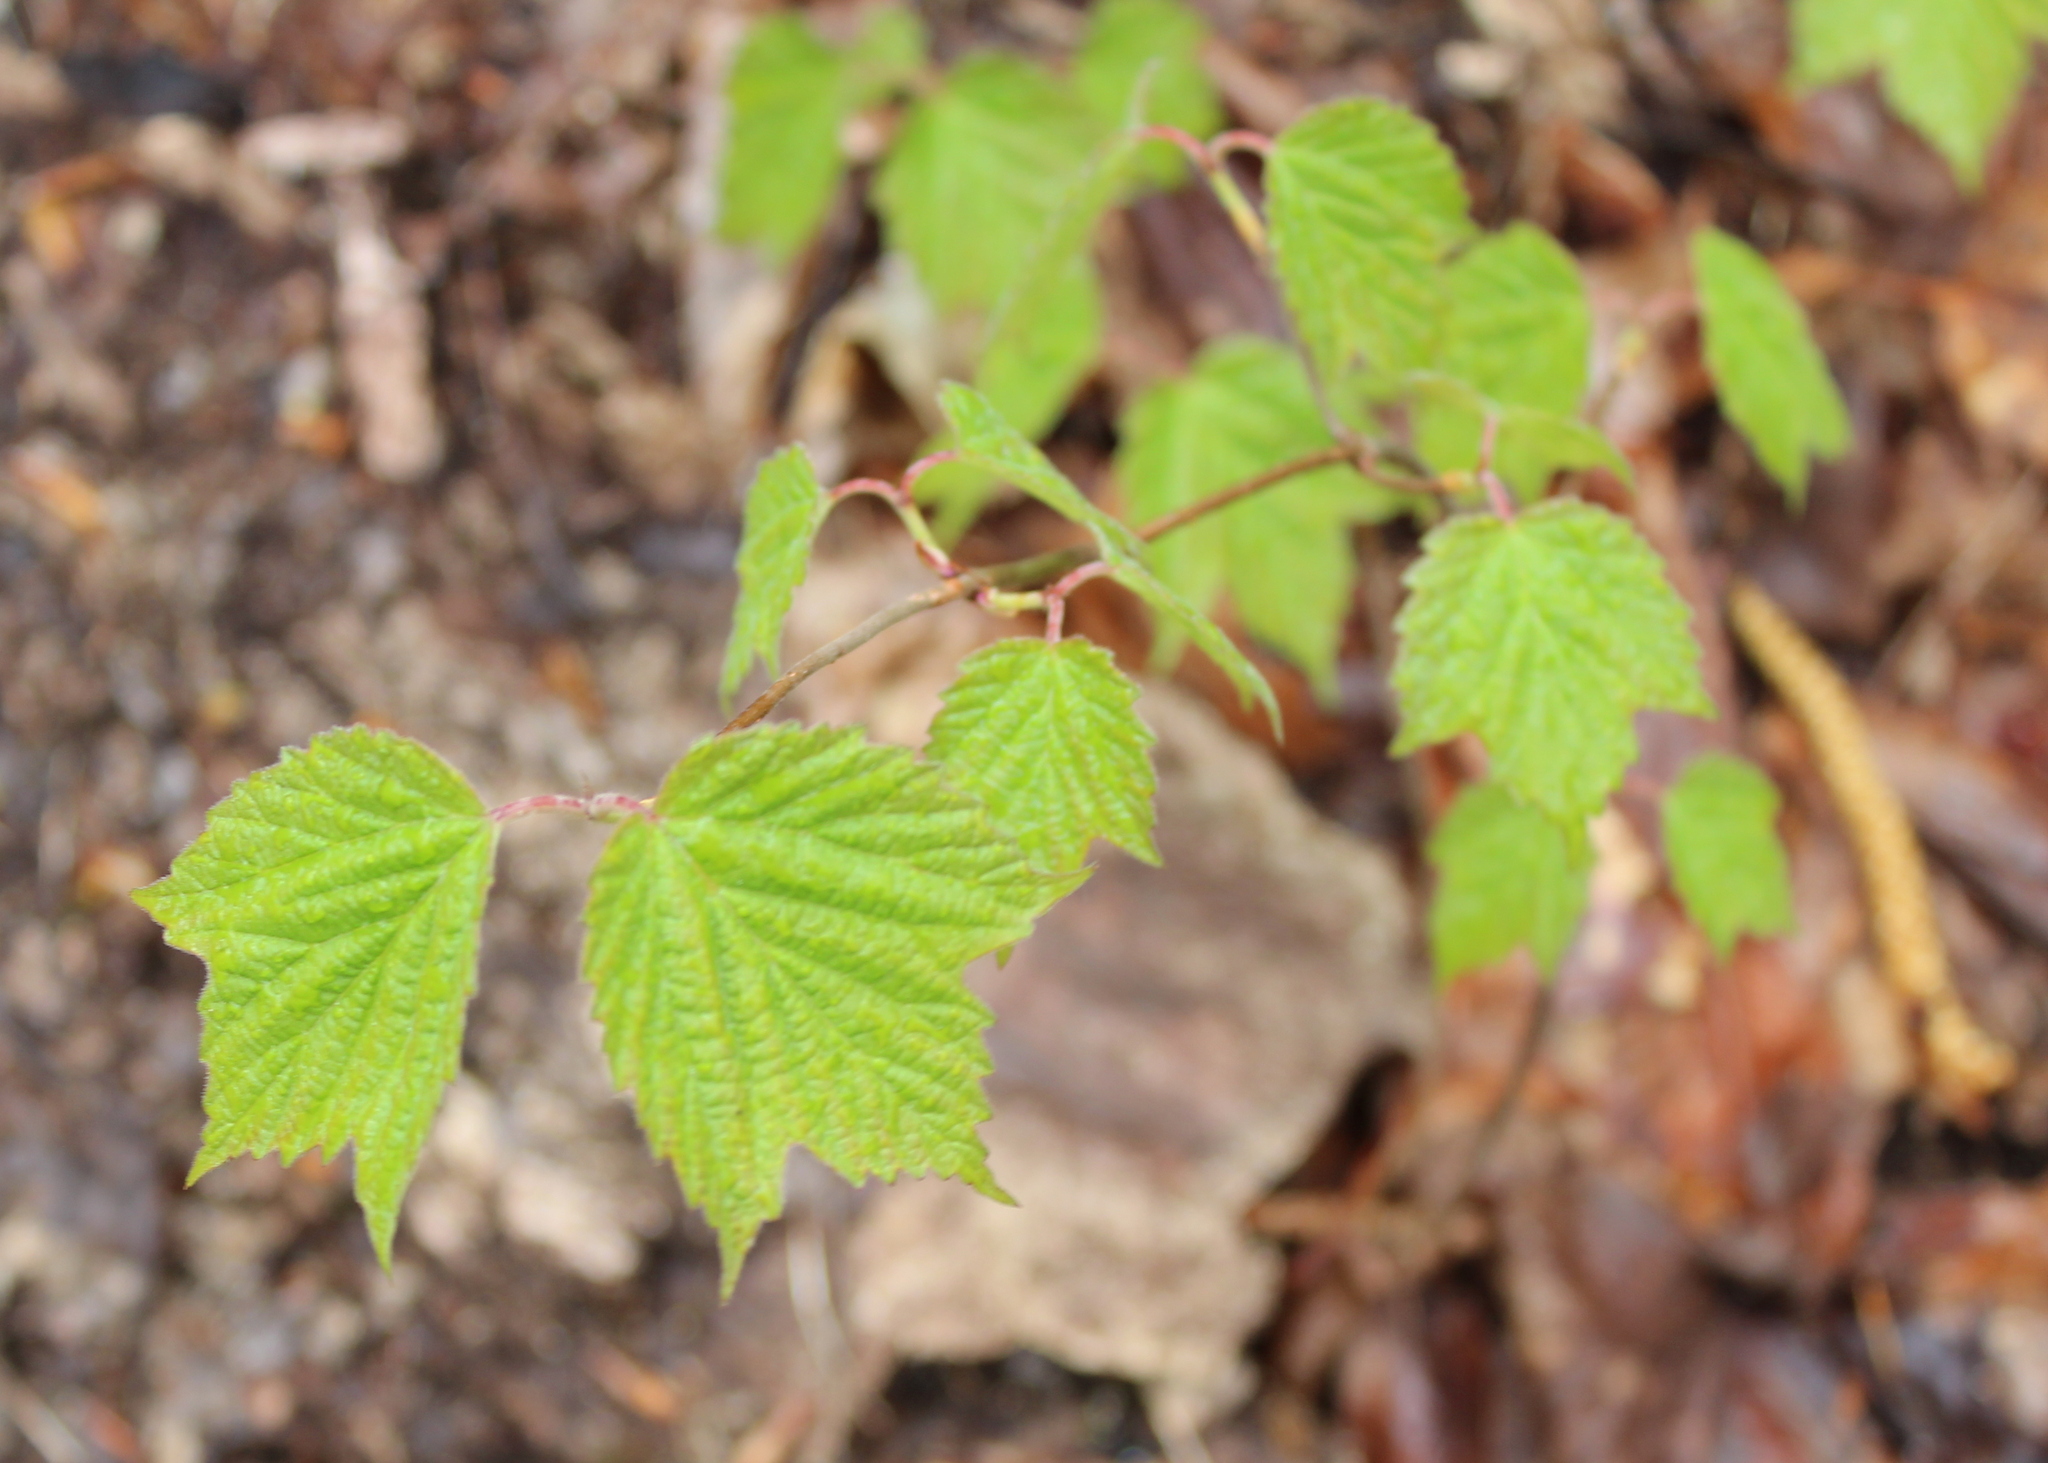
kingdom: Plantae
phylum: Tracheophyta
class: Magnoliopsida
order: Dipsacales
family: Viburnaceae
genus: Viburnum
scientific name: Viburnum acerifolium
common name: Dockmackie
